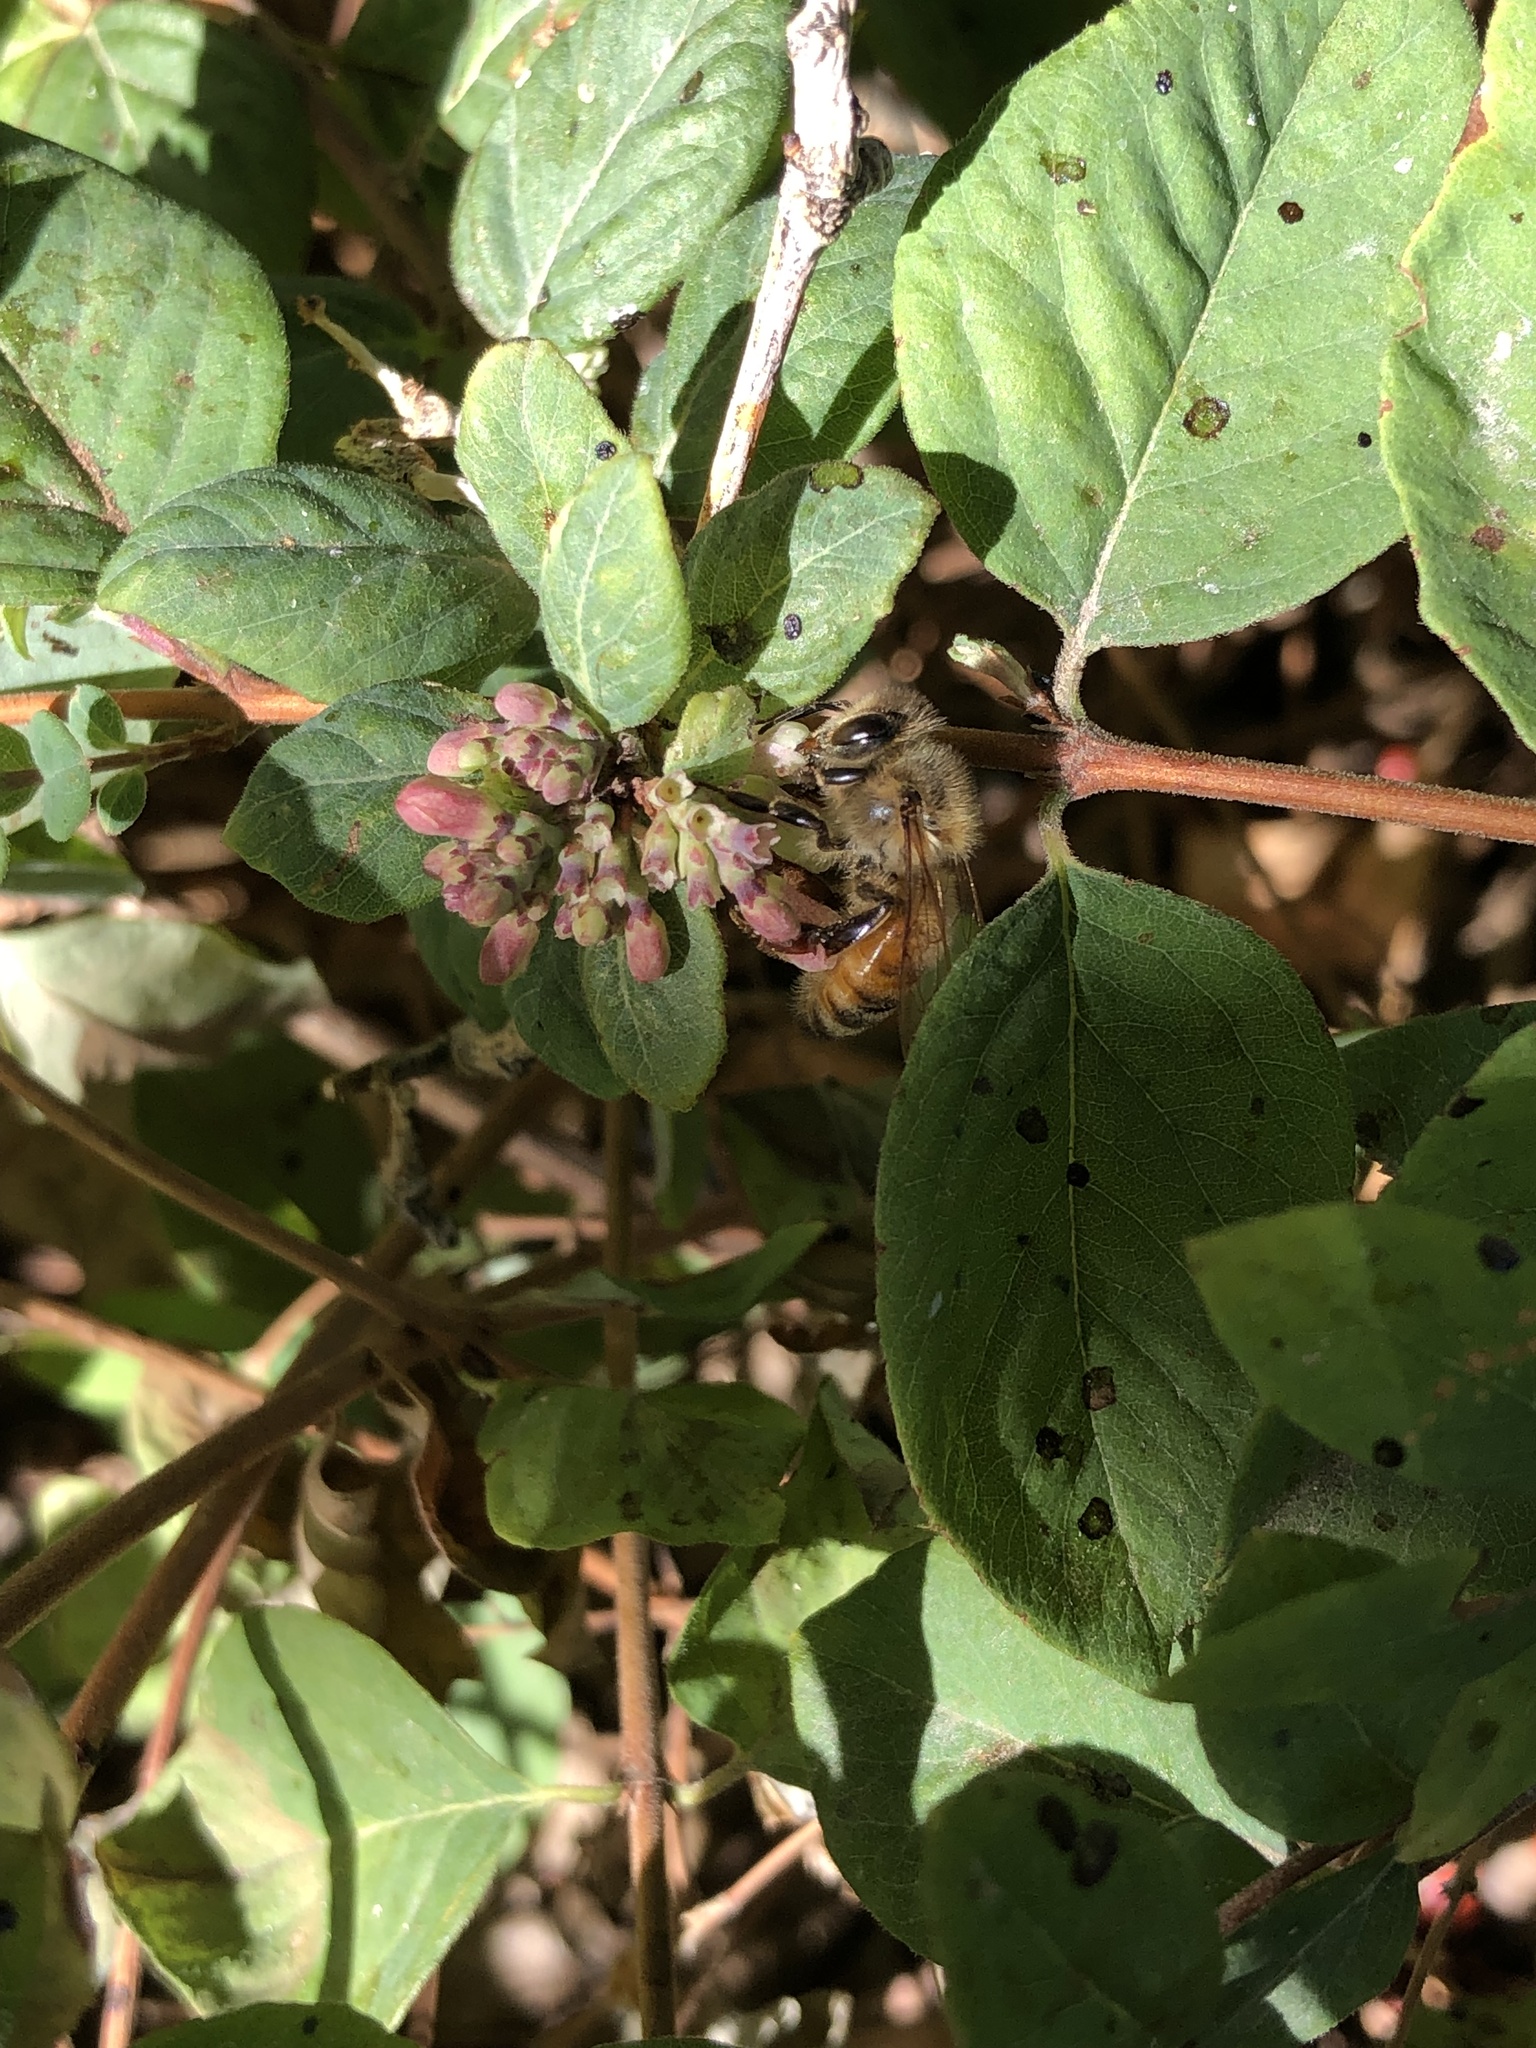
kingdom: Animalia
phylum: Arthropoda
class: Insecta
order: Hymenoptera
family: Apidae
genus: Apis
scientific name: Apis mellifera
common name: Honey bee
